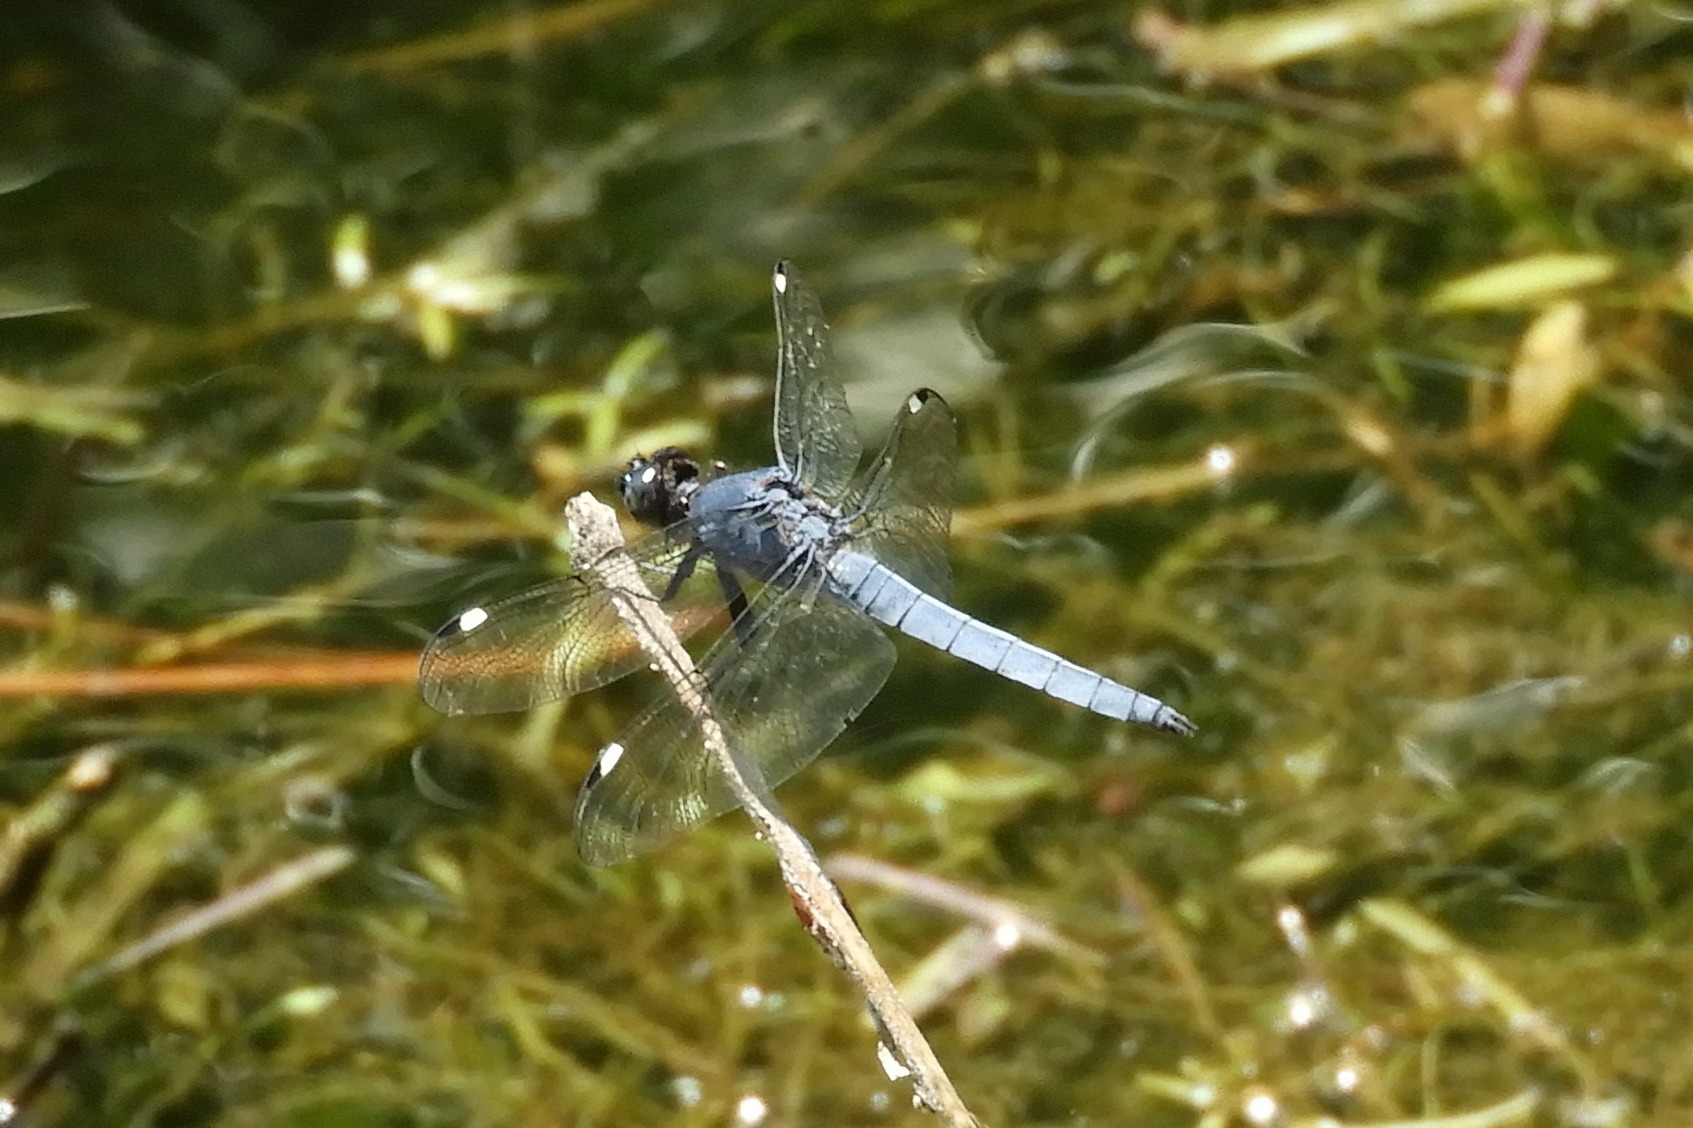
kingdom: Animalia
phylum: Arthropoda
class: Insecta
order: Odonata
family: Libellulidae
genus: Libellula
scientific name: Libellula cyanea
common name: Spangled skimmer
